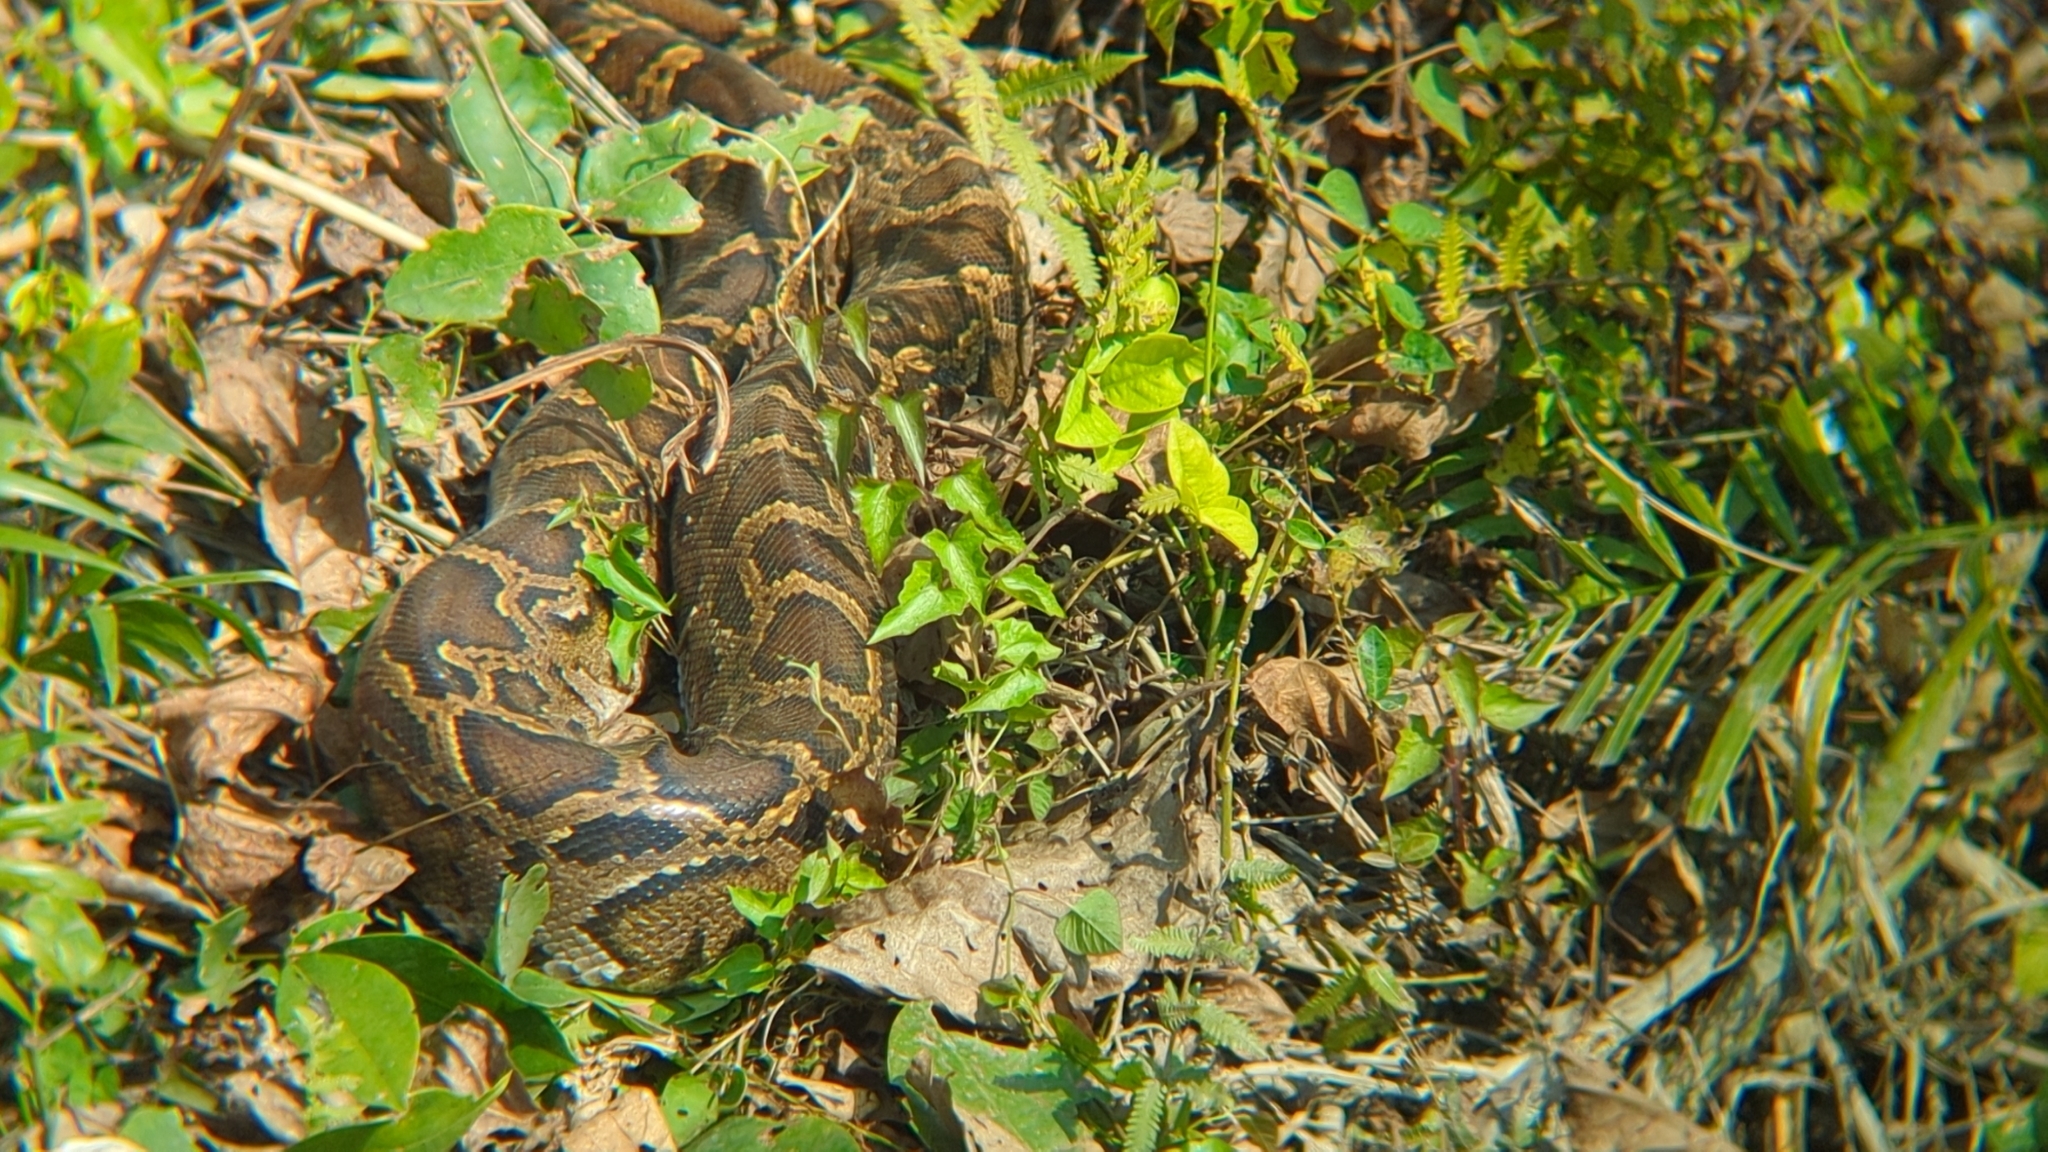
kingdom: Animalia
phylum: Chordata
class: Squamata
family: Pythonidae
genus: Python
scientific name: Python bivittatus
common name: Burmese python
